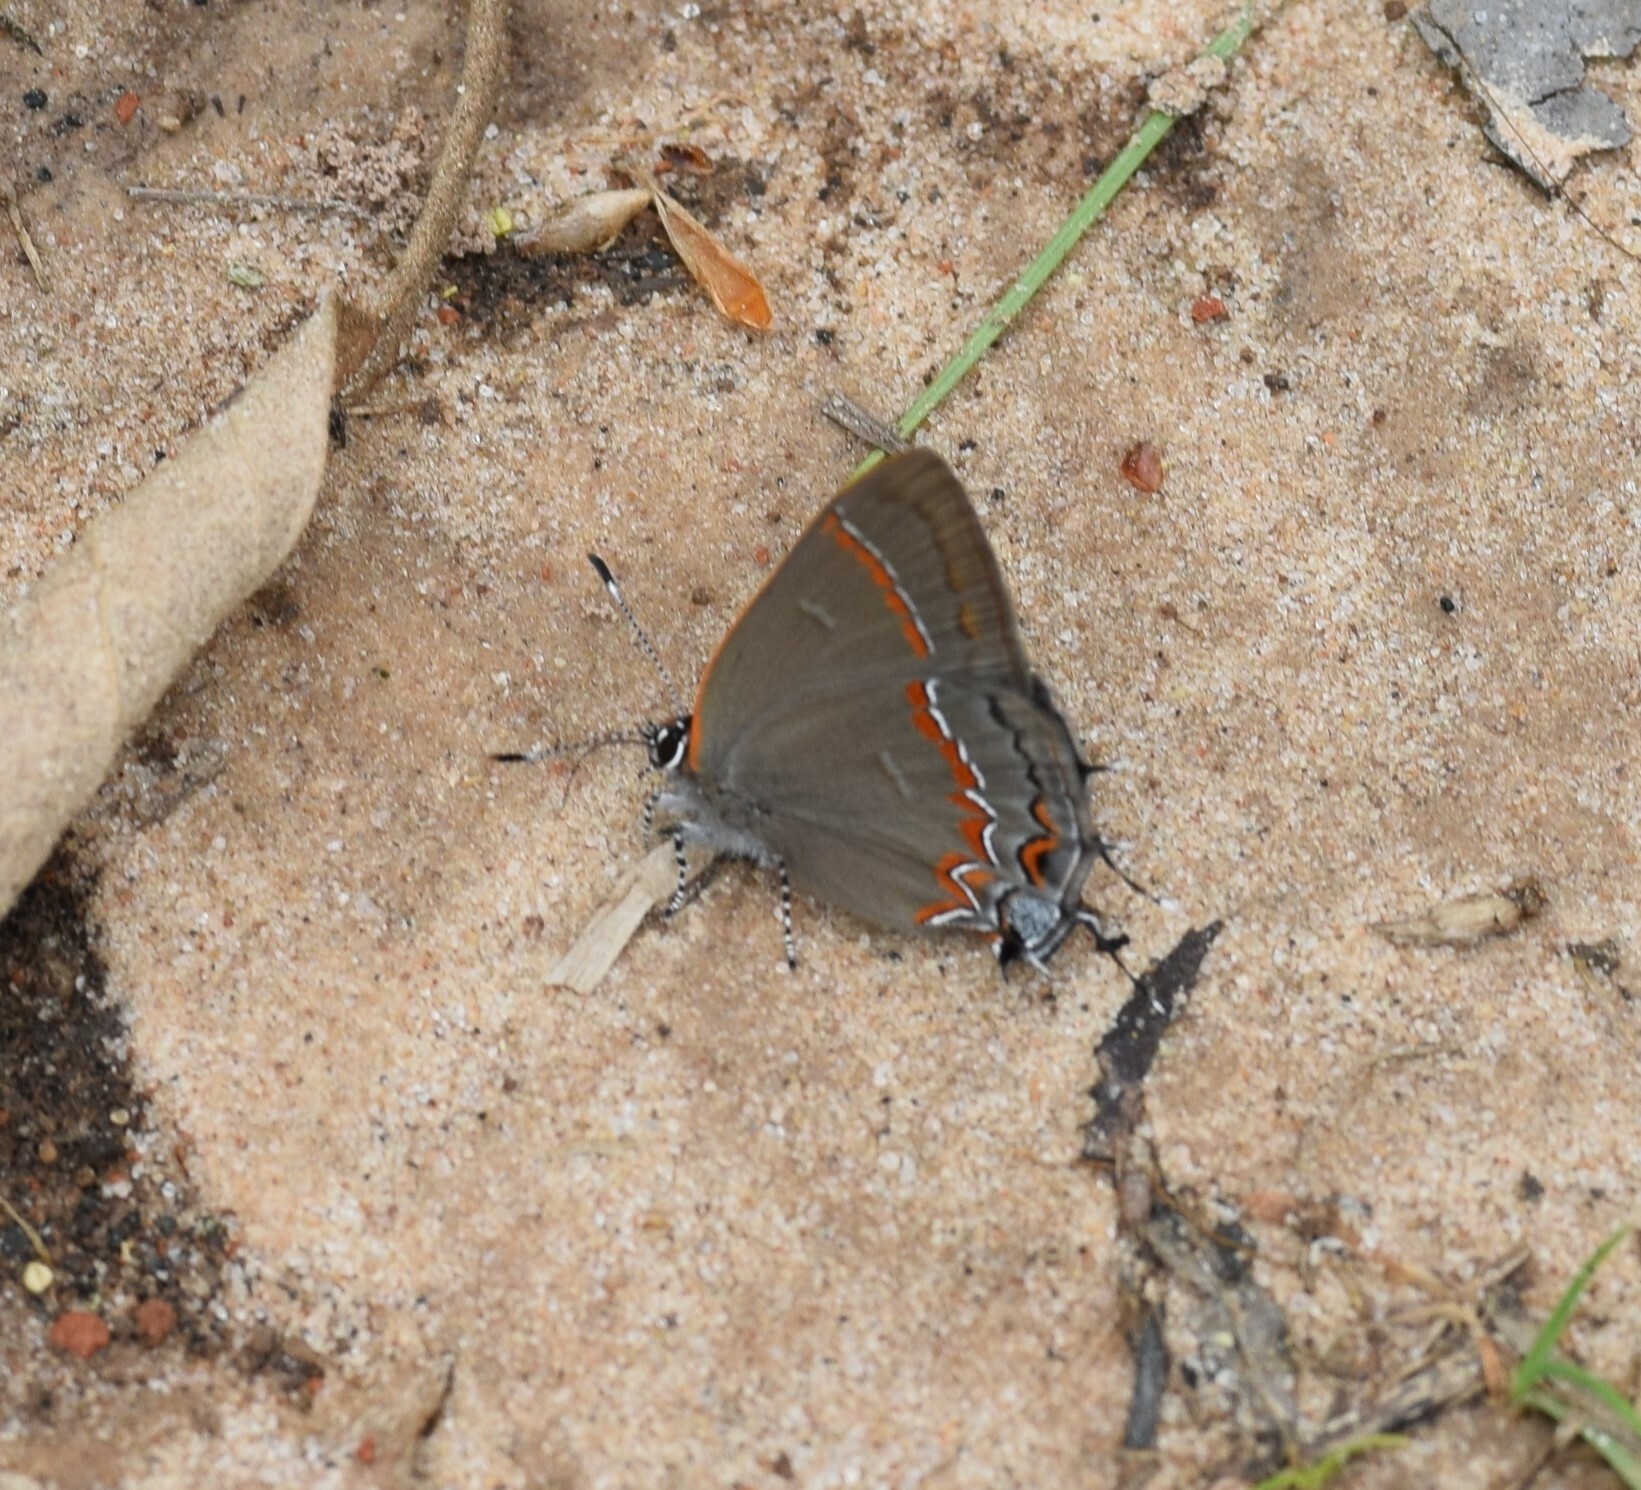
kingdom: Animalia
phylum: Arthropoda
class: Insecta
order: Lepidoptera
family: Lycaenidae
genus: Calycopis
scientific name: Calycopis cecrops
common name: Red-banded hairstreak
